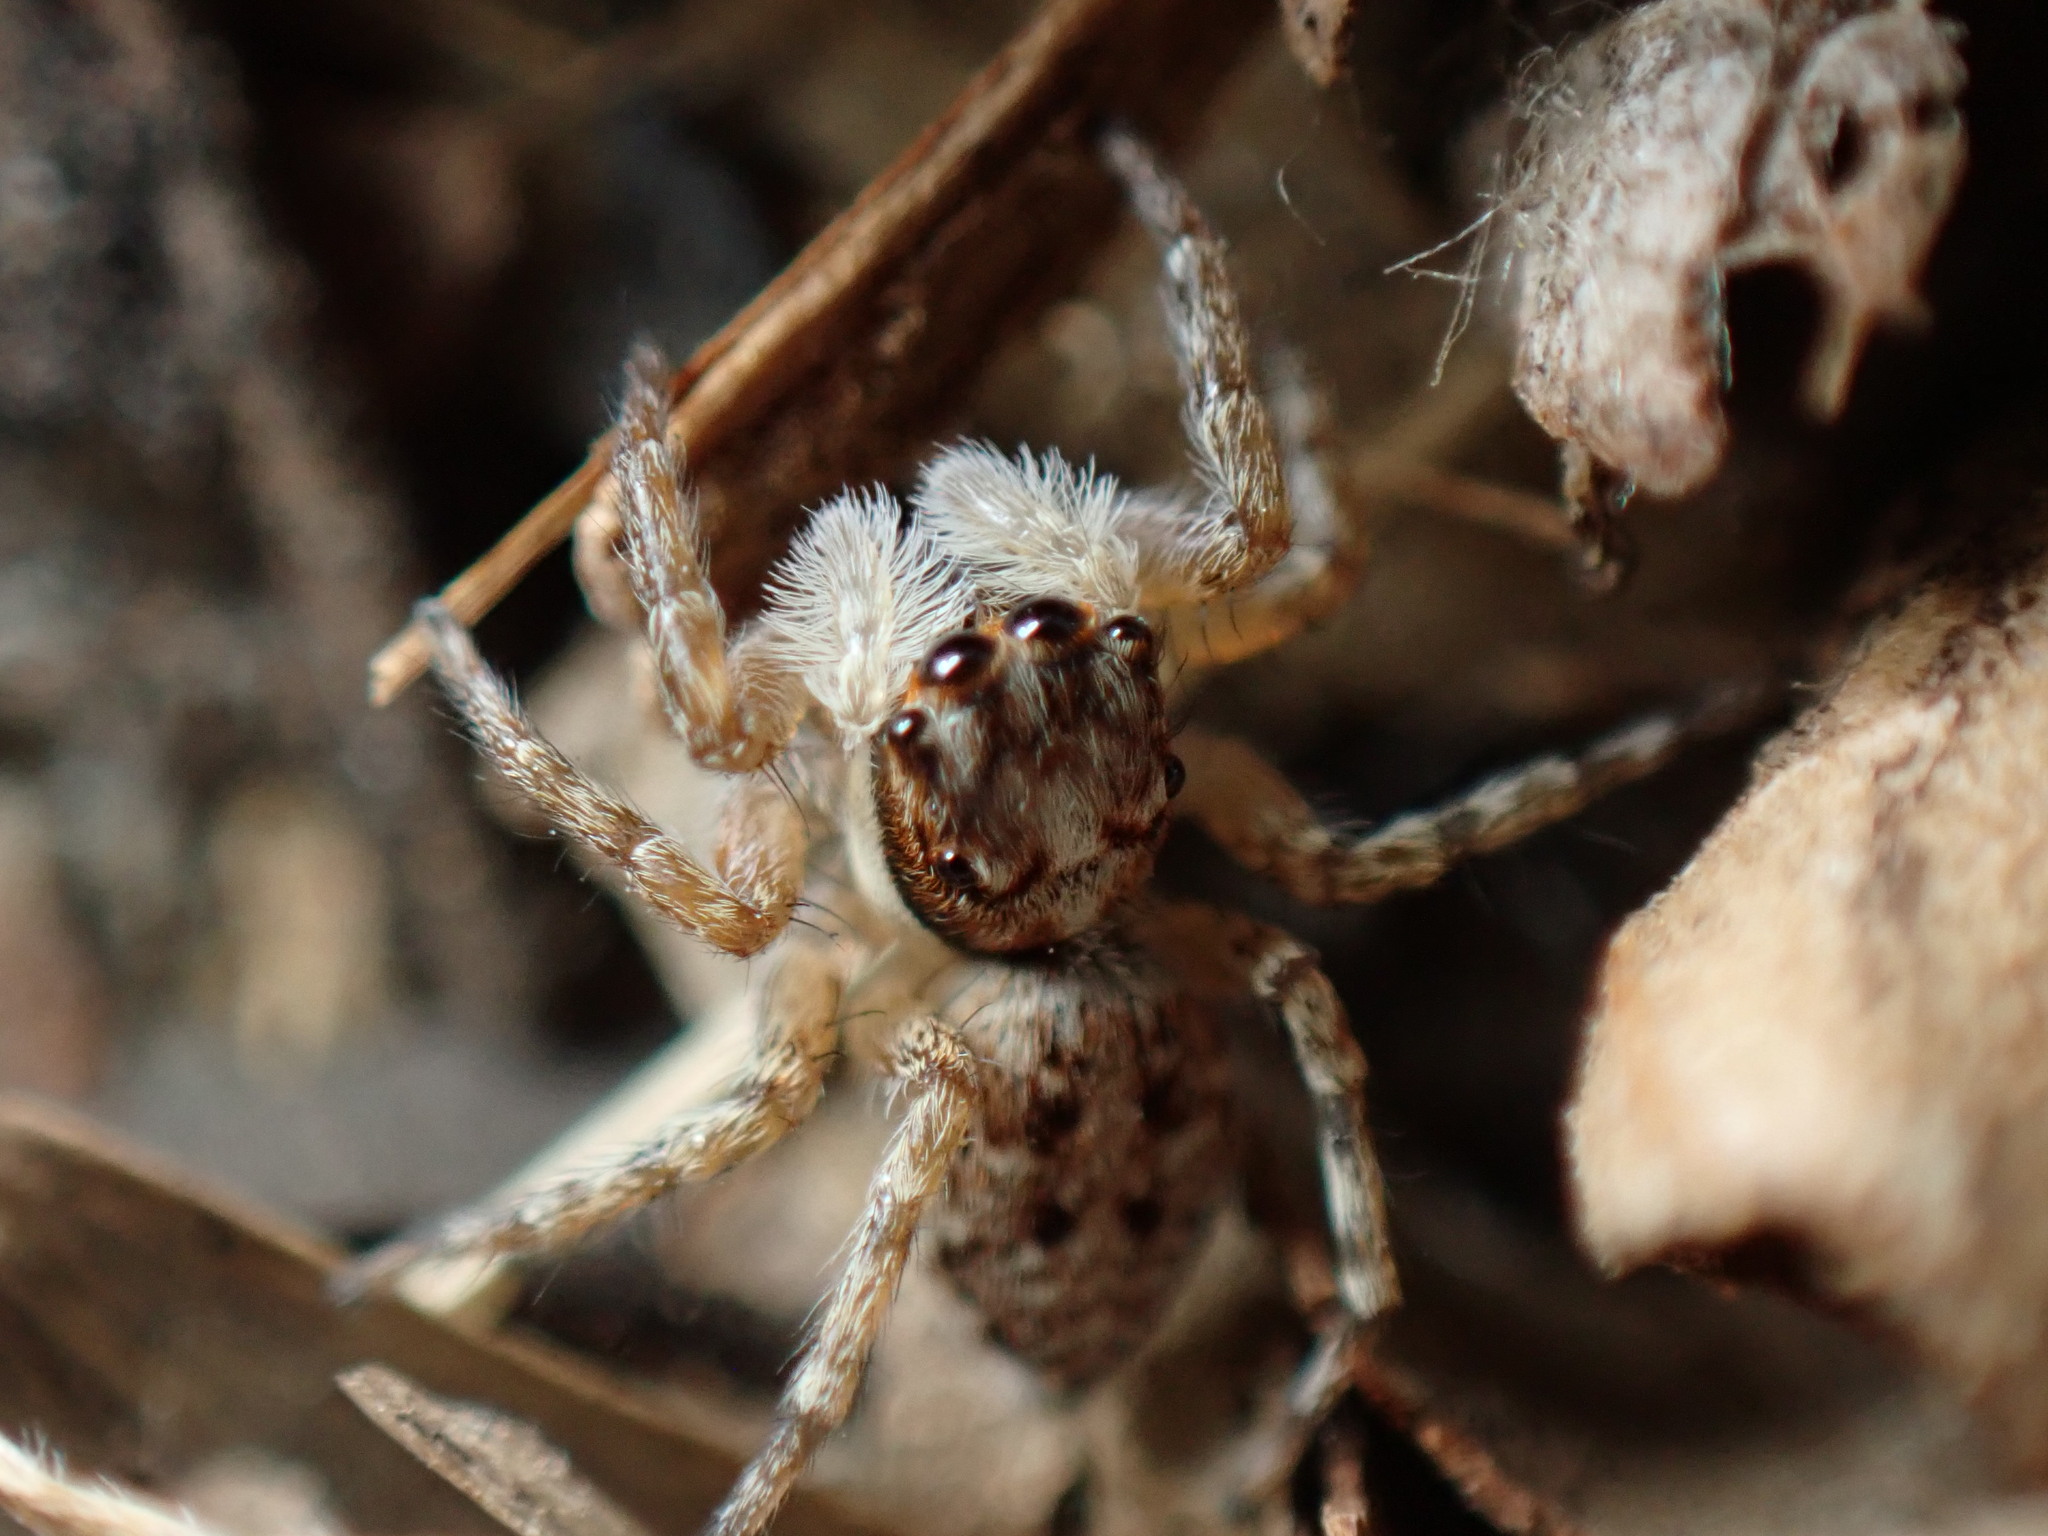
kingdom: Animalia
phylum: Arthropoda
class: Arachnida
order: Araneae
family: Salticidae
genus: Menemerus
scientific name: Menemerus semilimbatus
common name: Jumping spider
